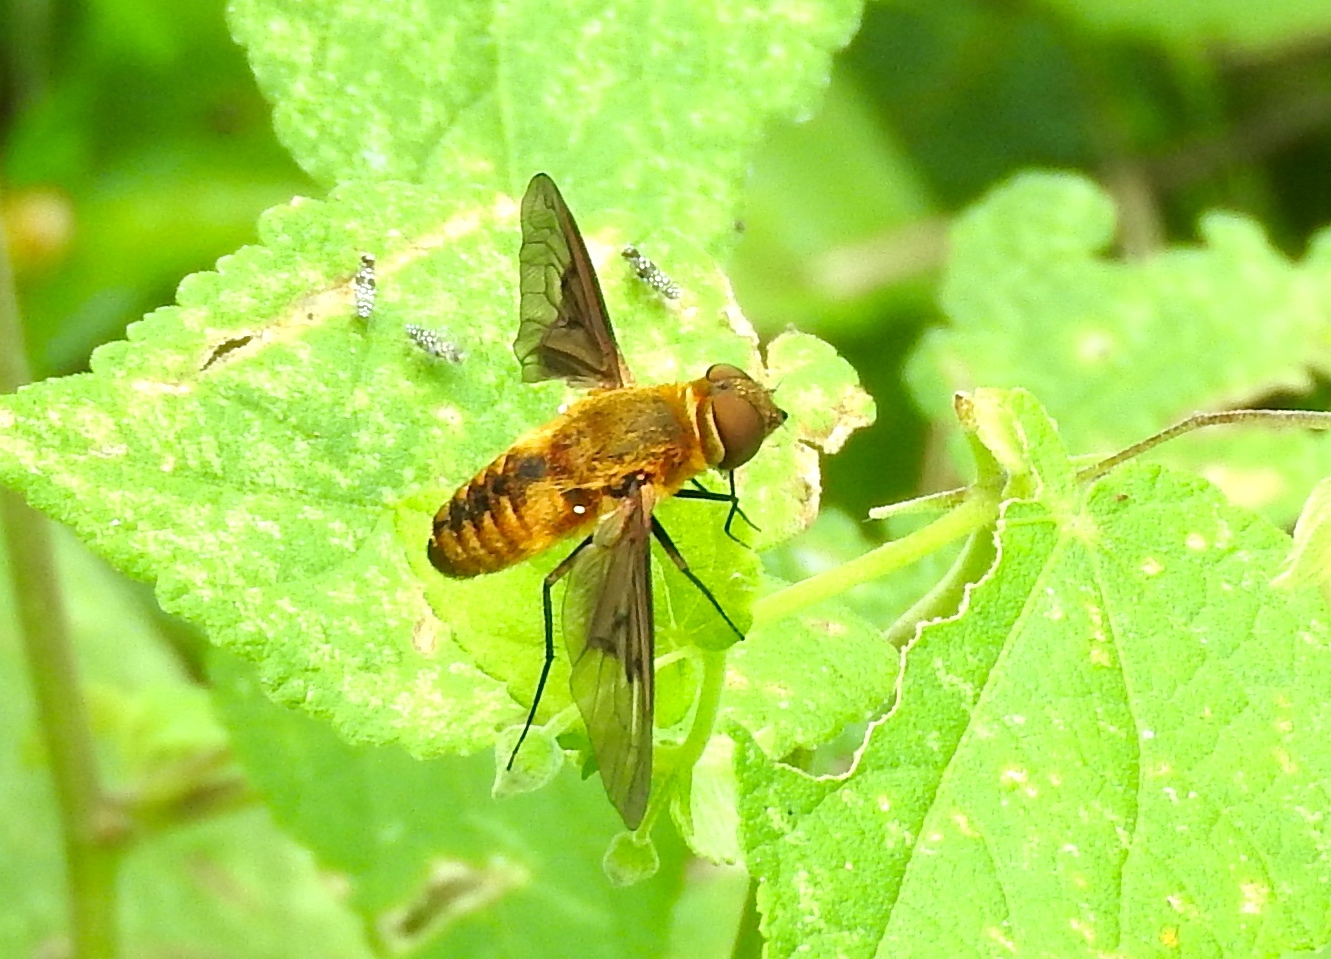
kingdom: Animalia
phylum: Arthropoda
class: Insecta
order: Diptera
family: Bombyliidae
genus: Chrysanthrax
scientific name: Chrysanthrax
